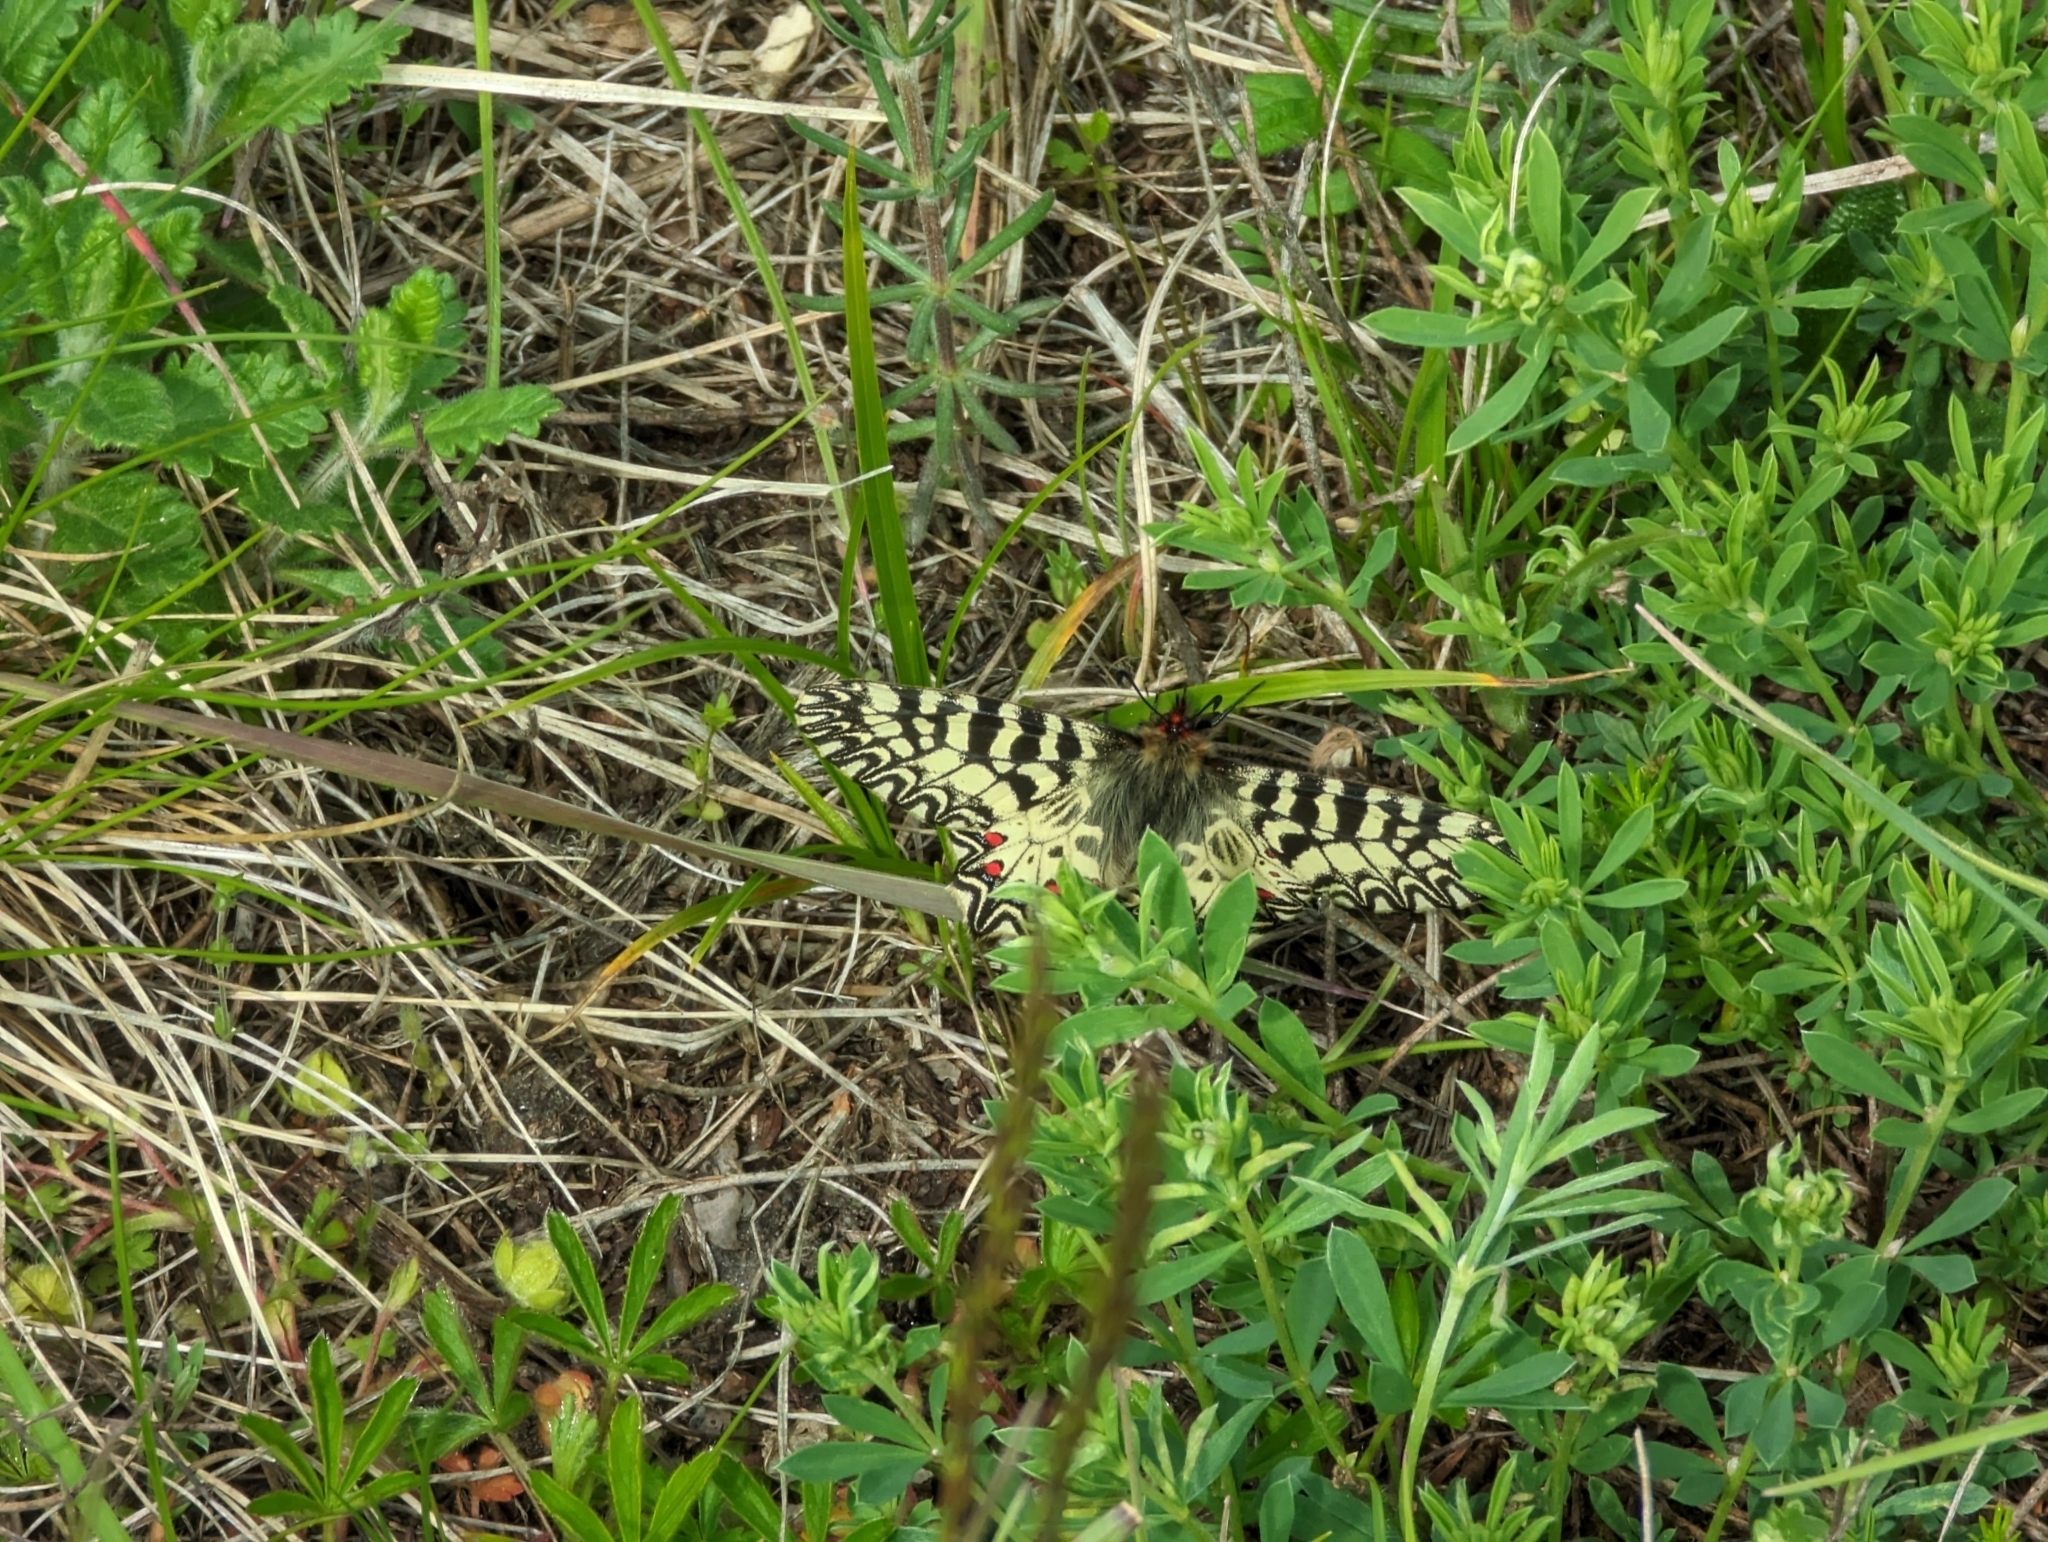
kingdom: Animalia
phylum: Arthropoda
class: Insecta
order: Lepidoptera
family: Papilionidae
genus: Zerynthia
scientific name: Zerynthia polyxena
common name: Southern festoon
